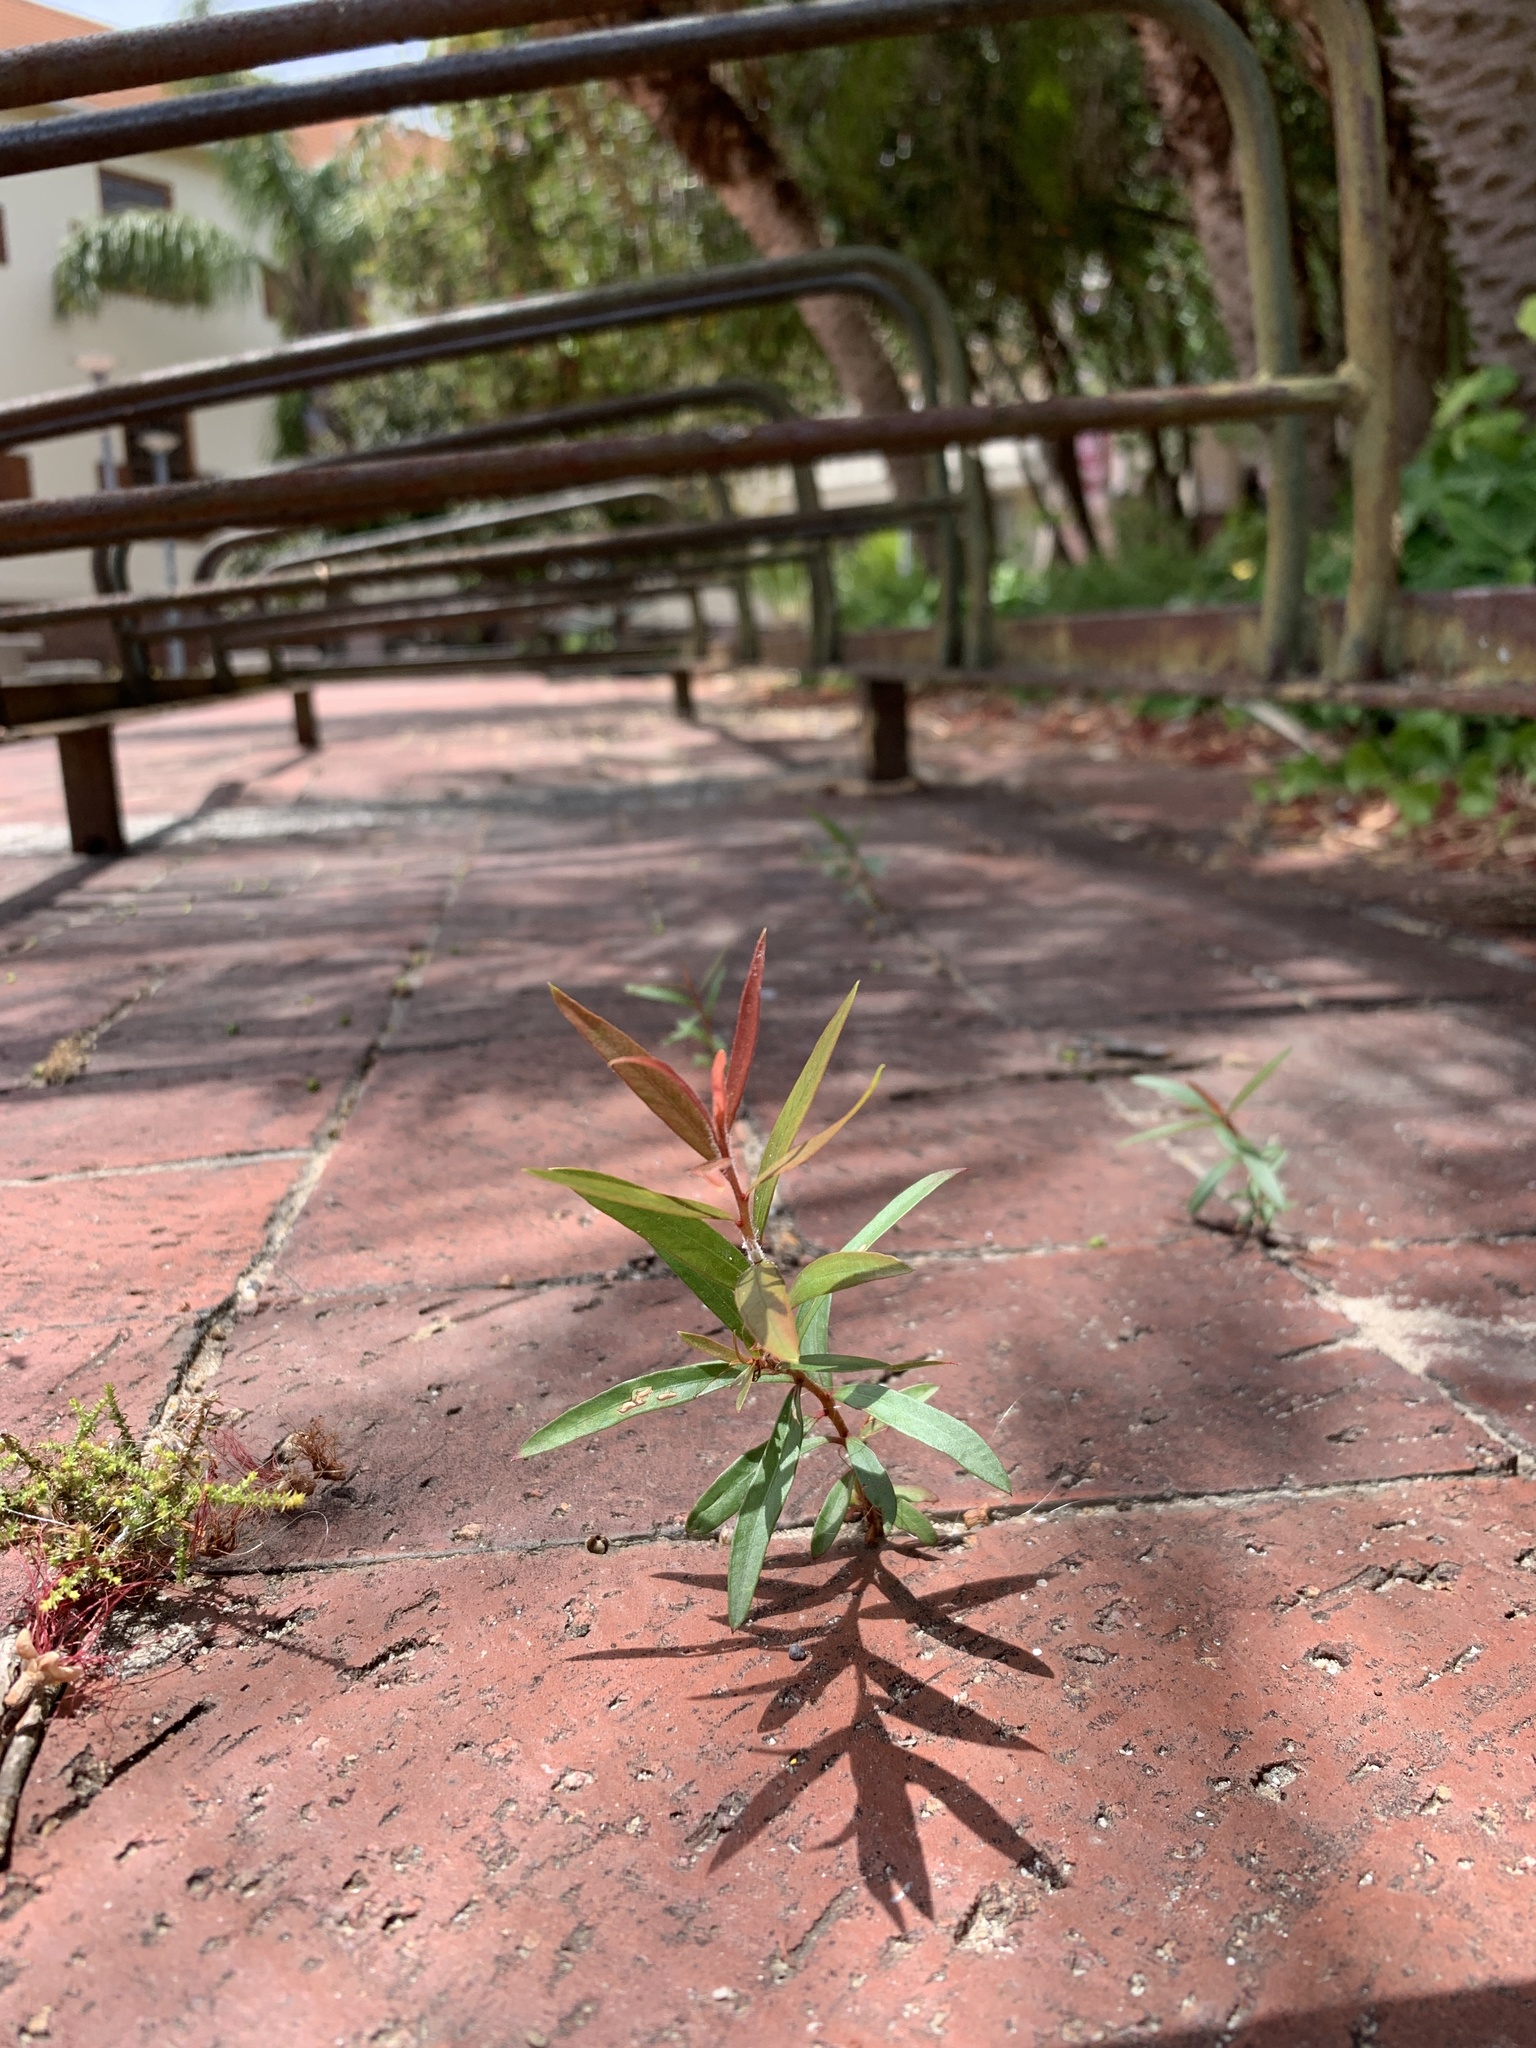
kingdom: Plantae
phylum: Tracheophyta
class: Magnoliopsida
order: Myrtales
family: Myrtaceae
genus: Callistemon
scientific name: Callistemon viminalis
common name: Drooping bottlebrush
